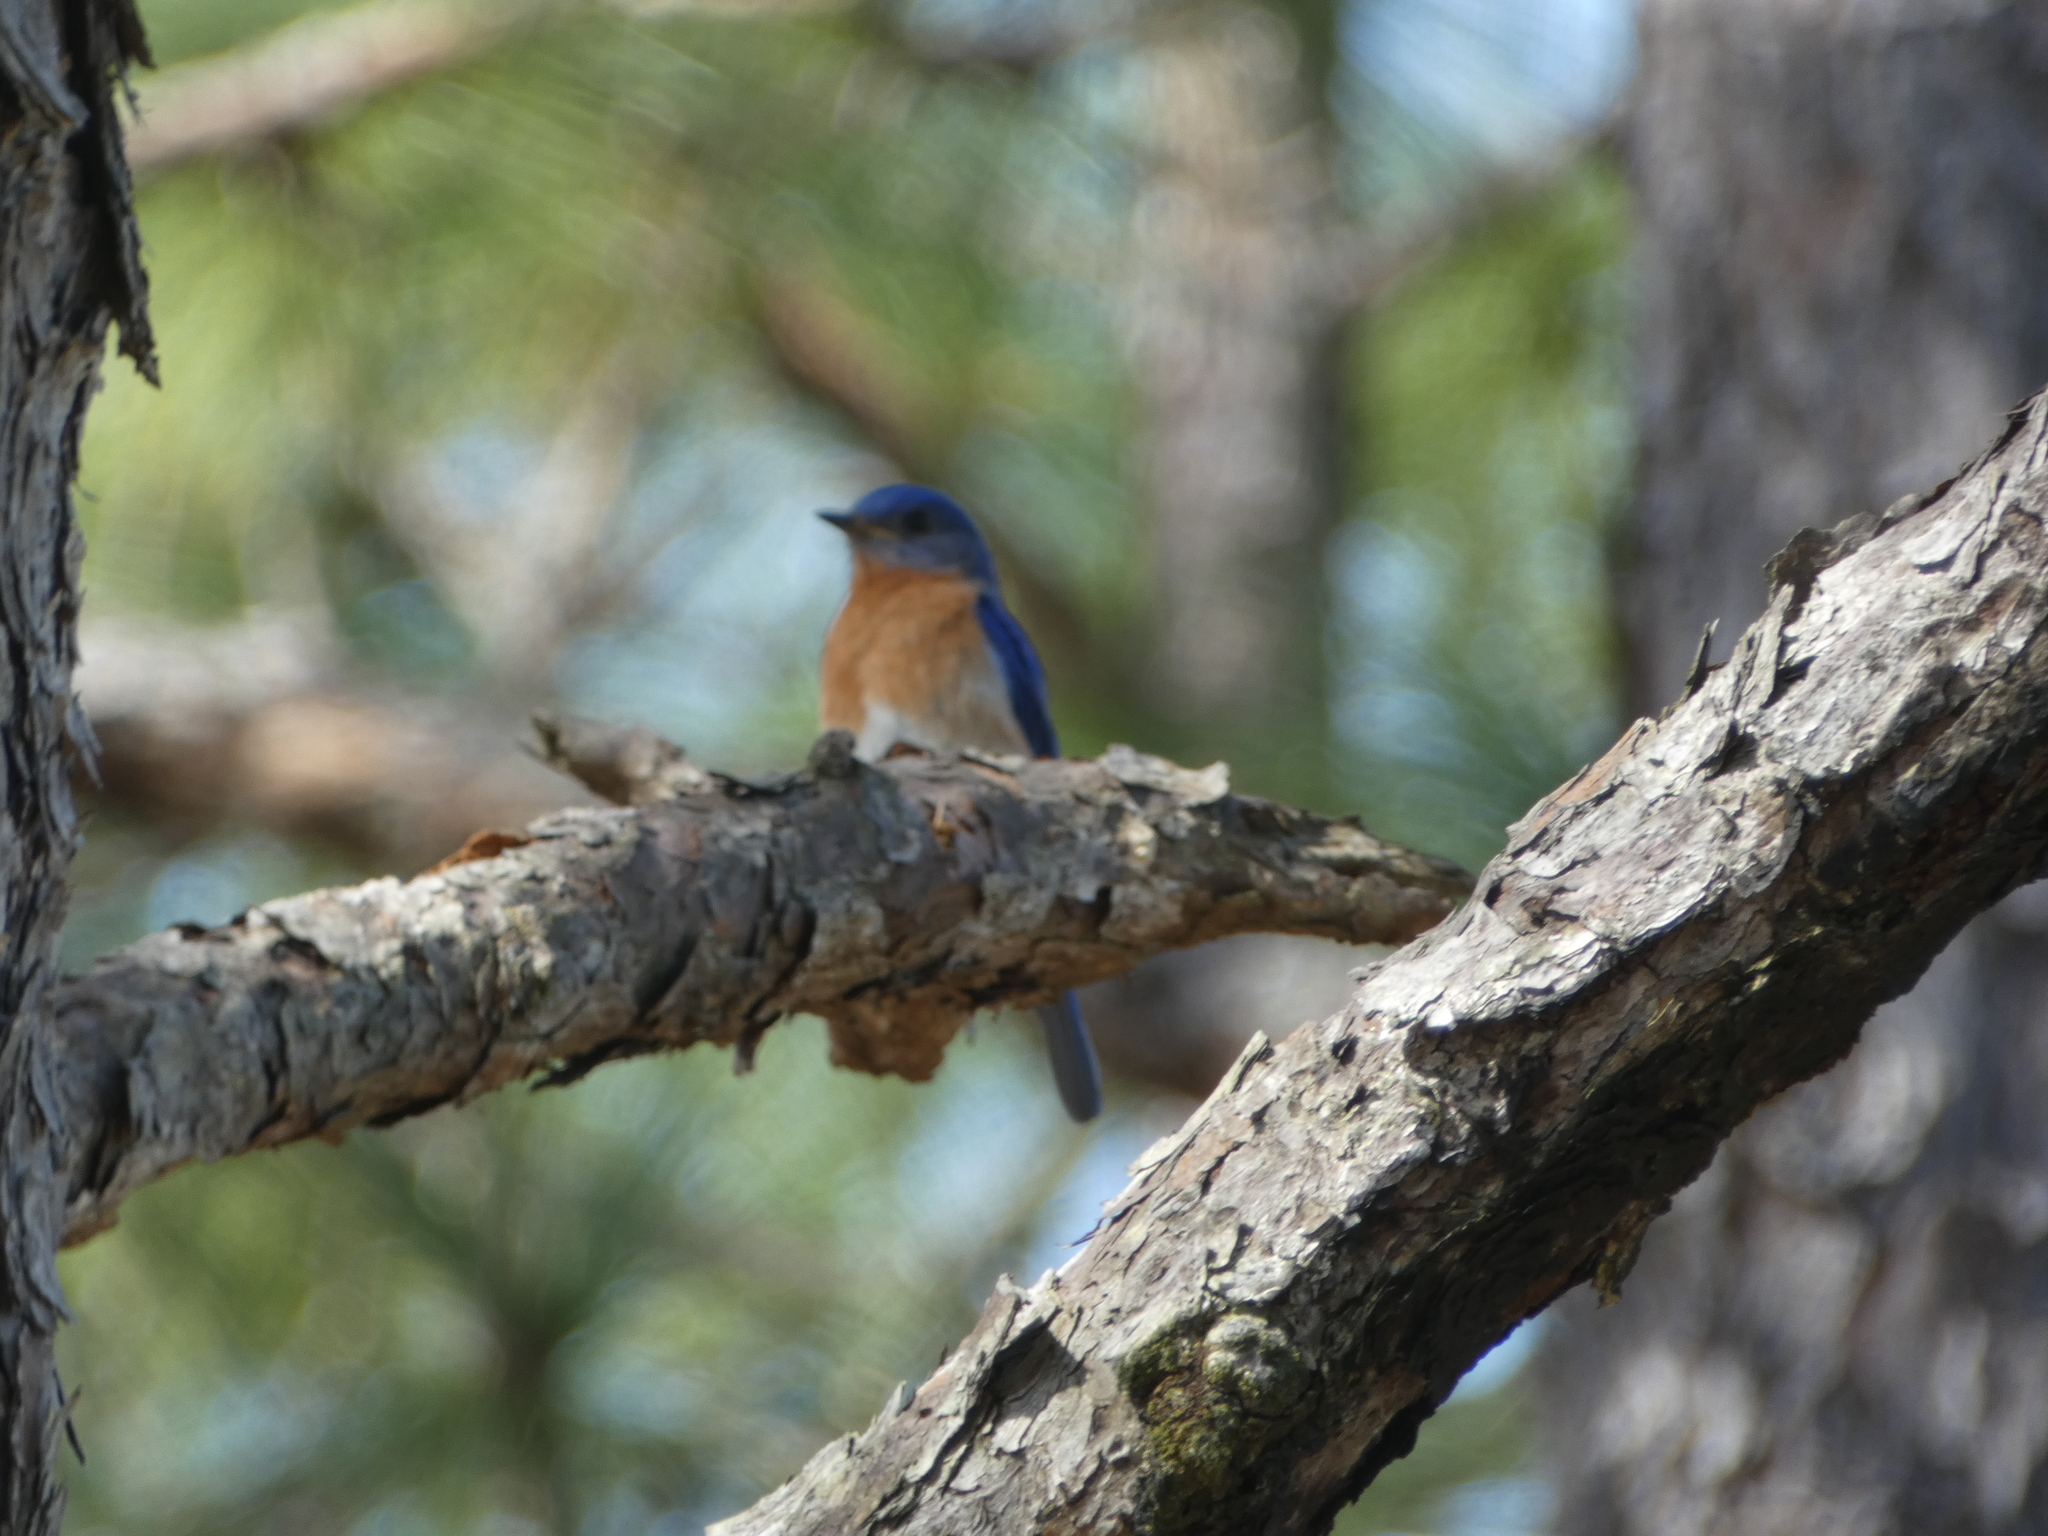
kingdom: Animalia
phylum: Chordata
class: Aves
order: Passeriformes
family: Turdidae
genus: Sialia
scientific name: Sialia sialis
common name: Eastern bluebird
